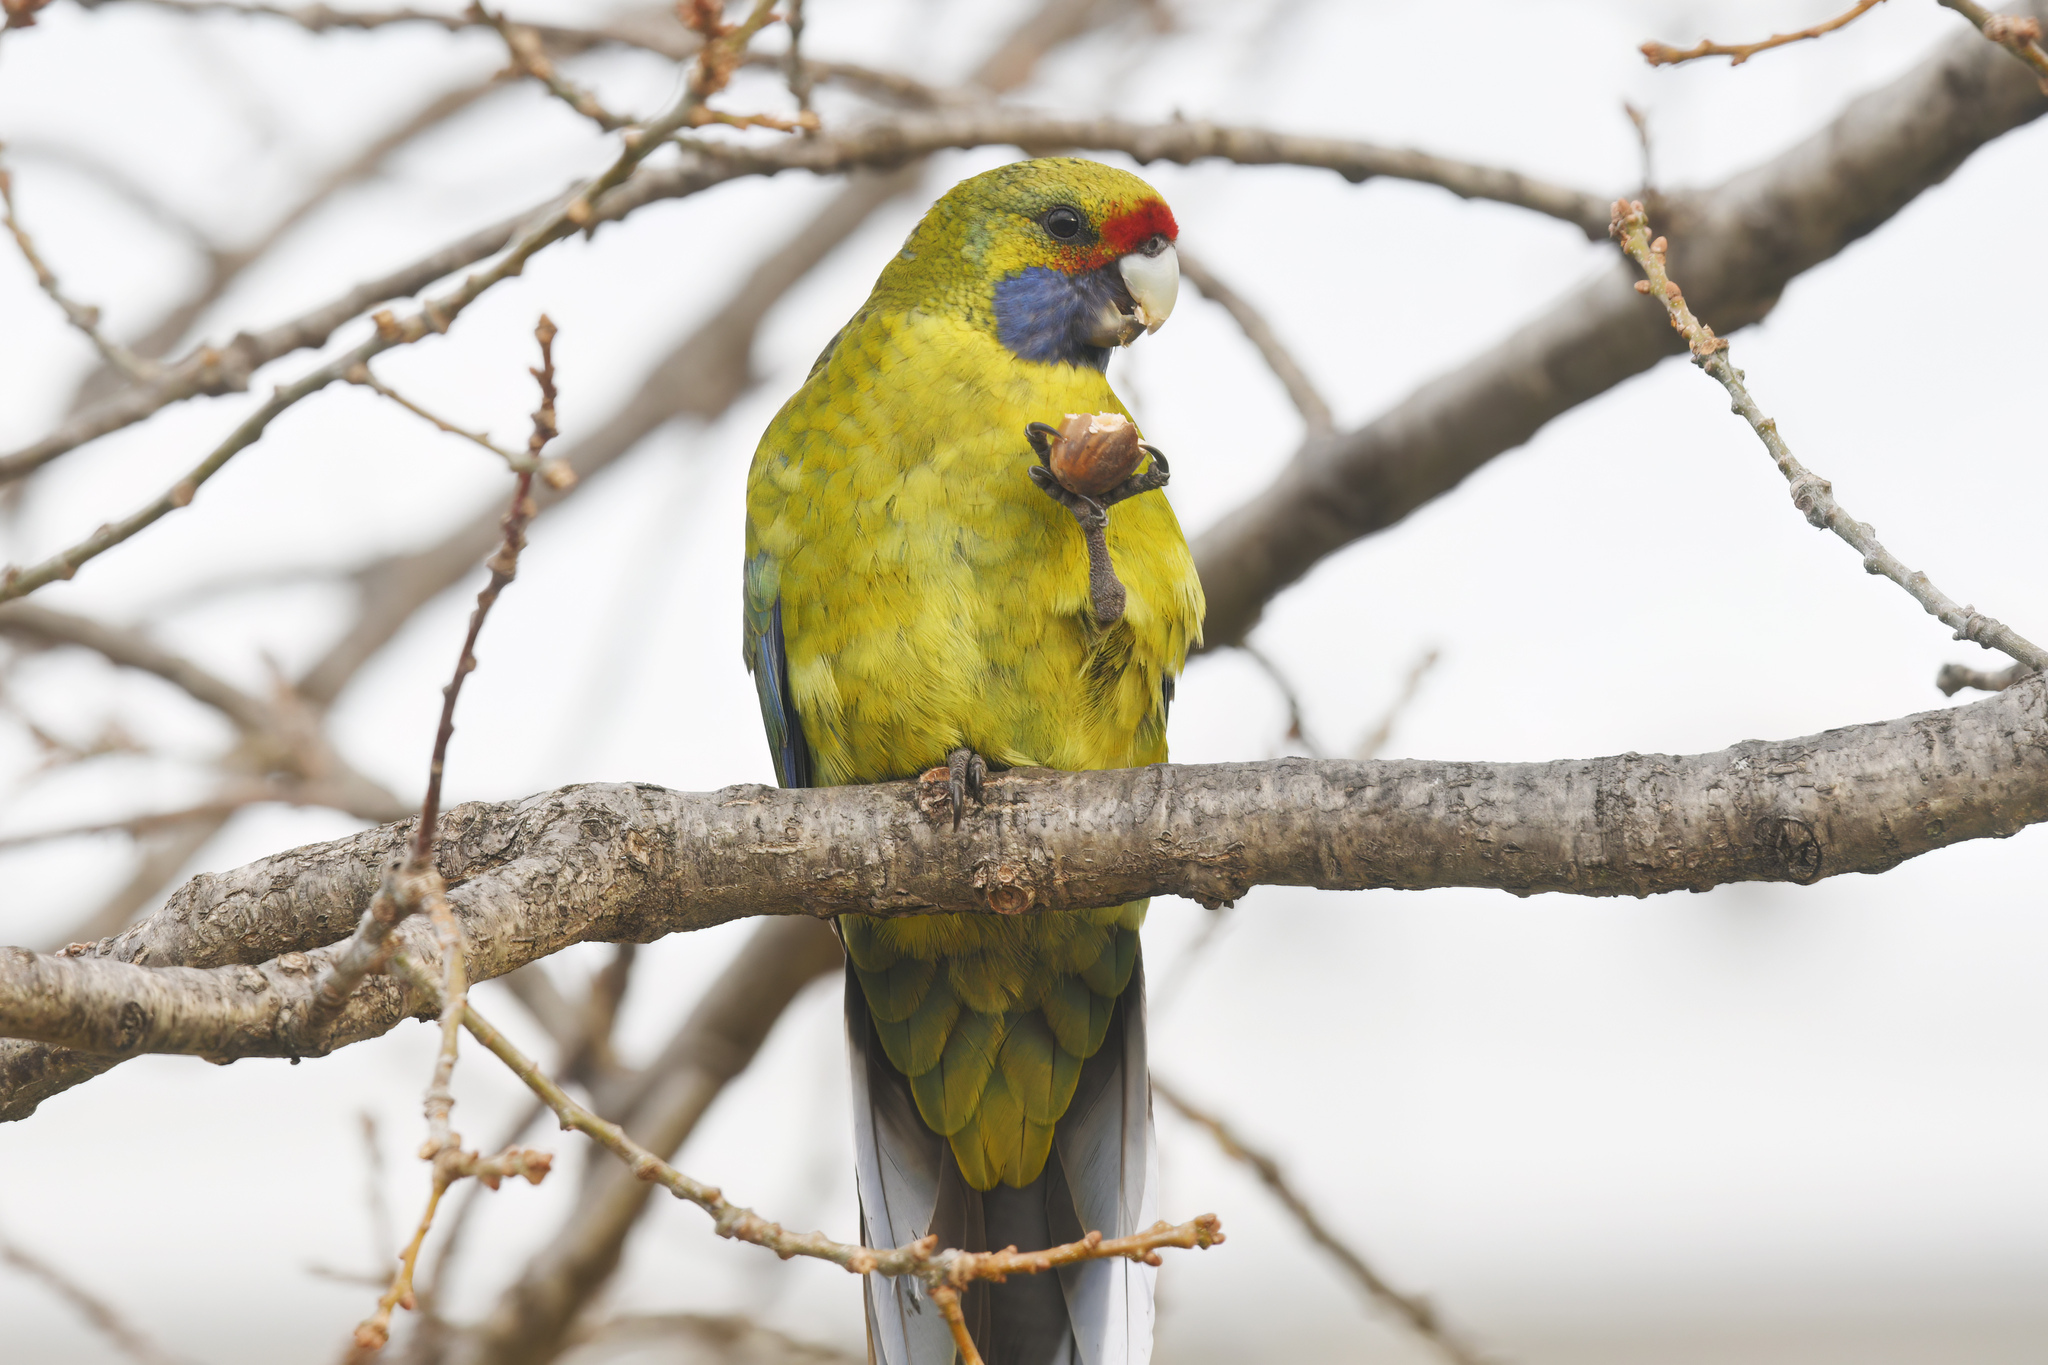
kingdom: Animalia
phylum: Chordata
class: Aves
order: Psittaciformes
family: Psittacidae
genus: Platycercus
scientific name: Platycercus caledonicus
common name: Green rosella
